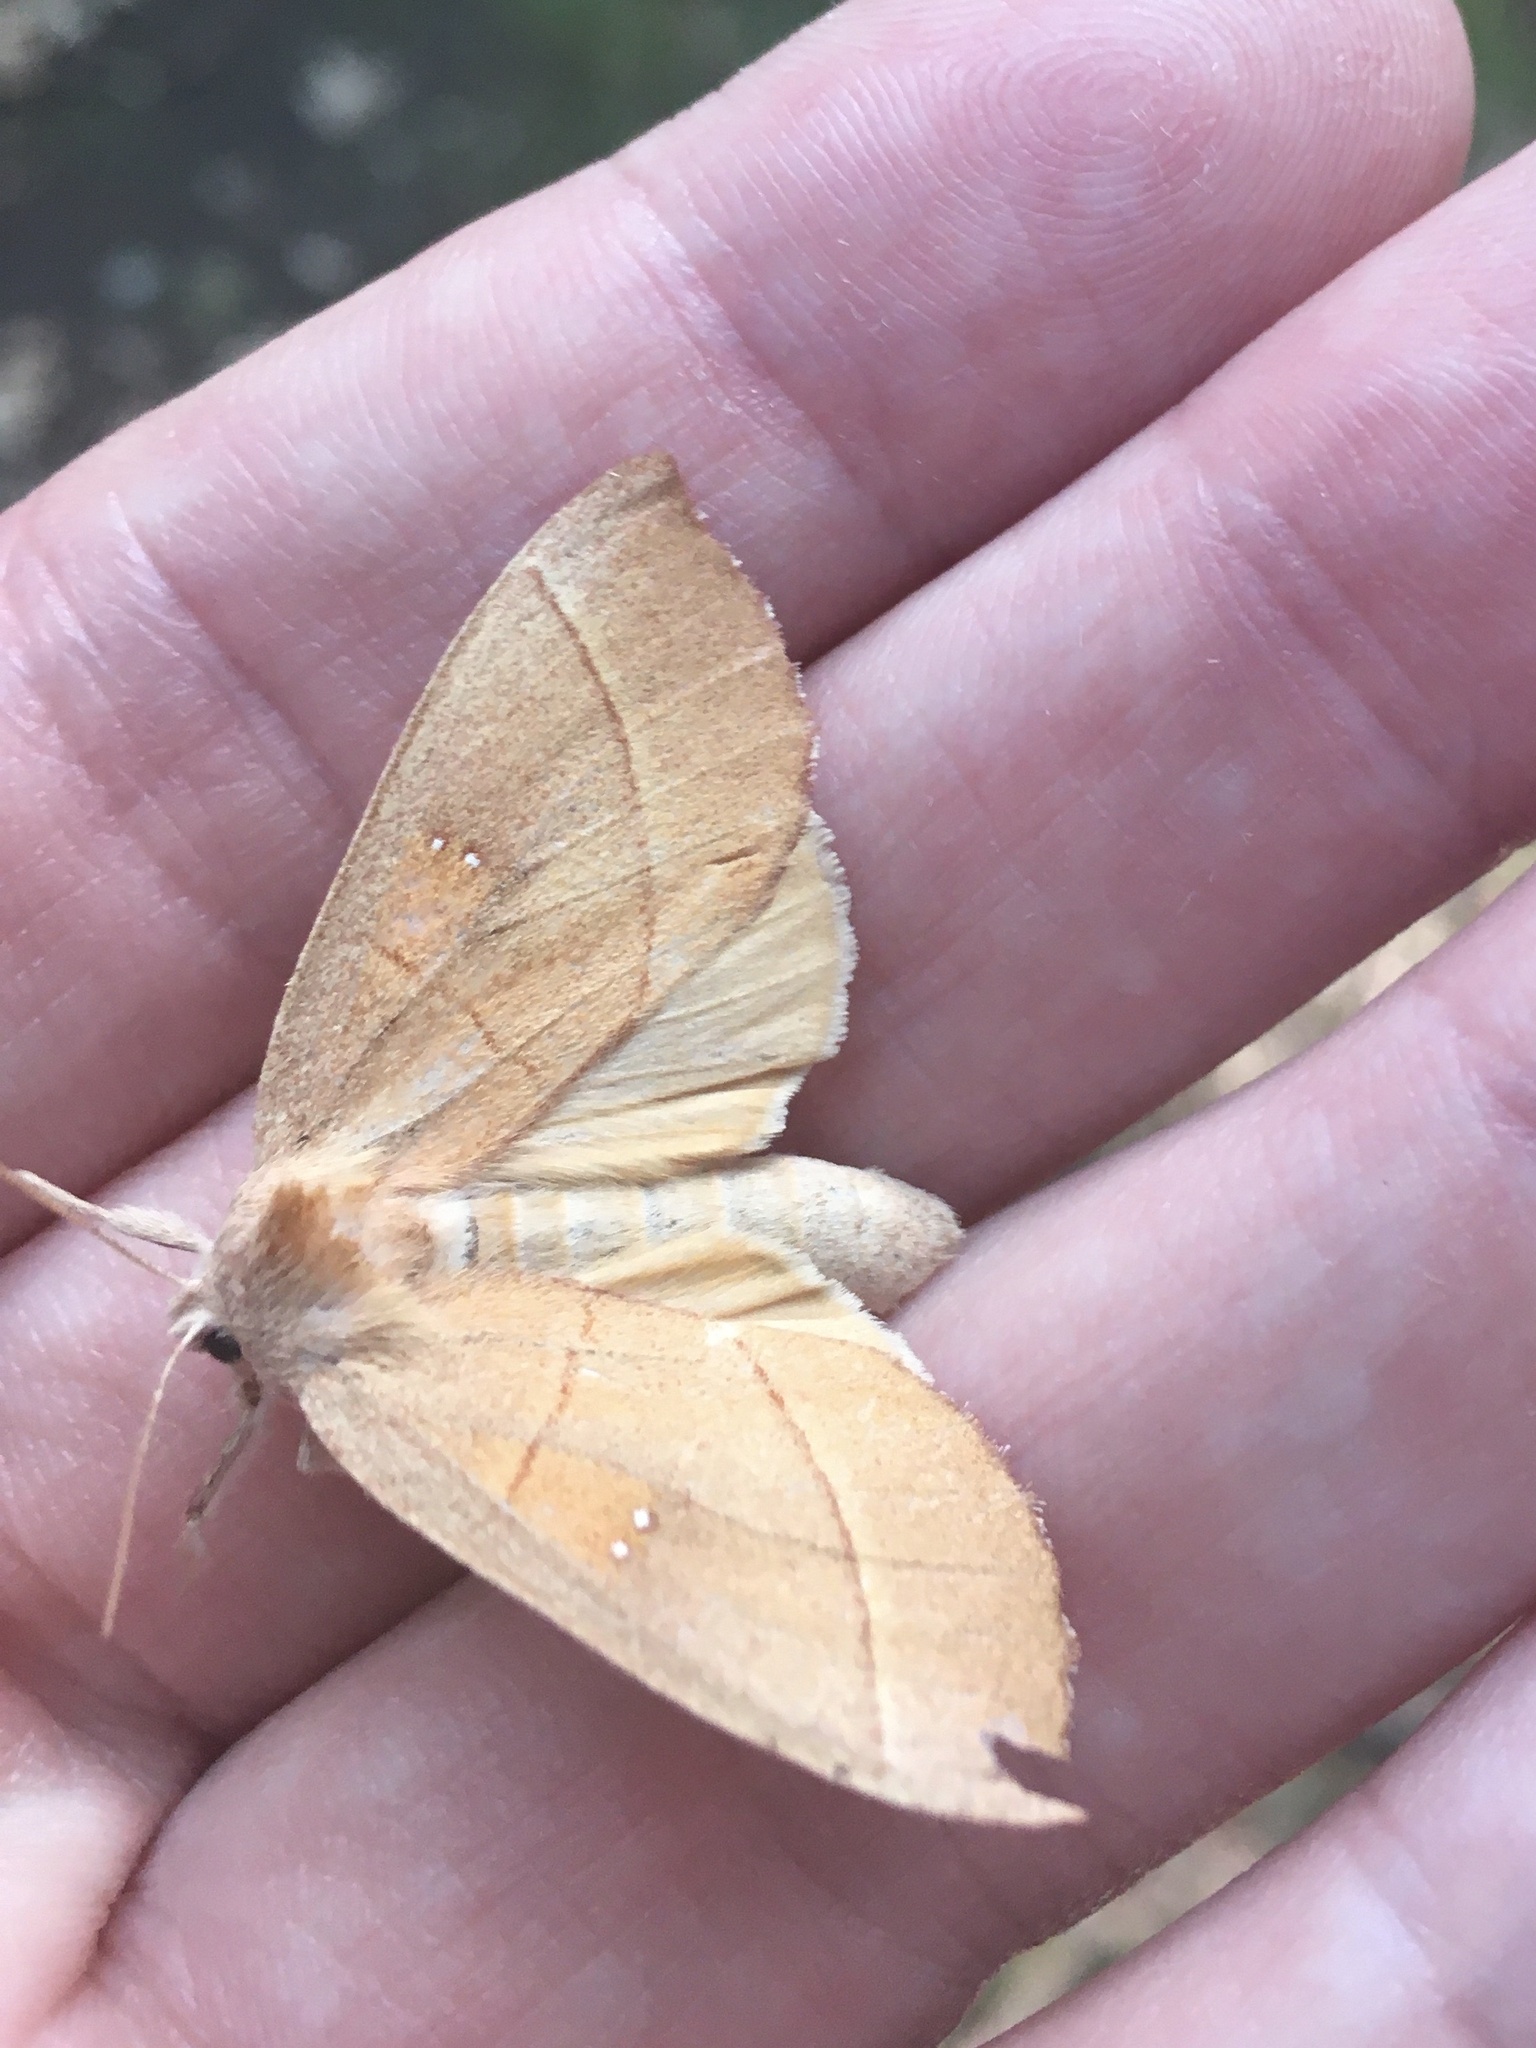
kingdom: Animalia
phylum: Arthropoda
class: Insecta
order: Lepidoptera
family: Notodontidae
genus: Nadata
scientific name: Nadata gibbosa
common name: White-dotted prominent
